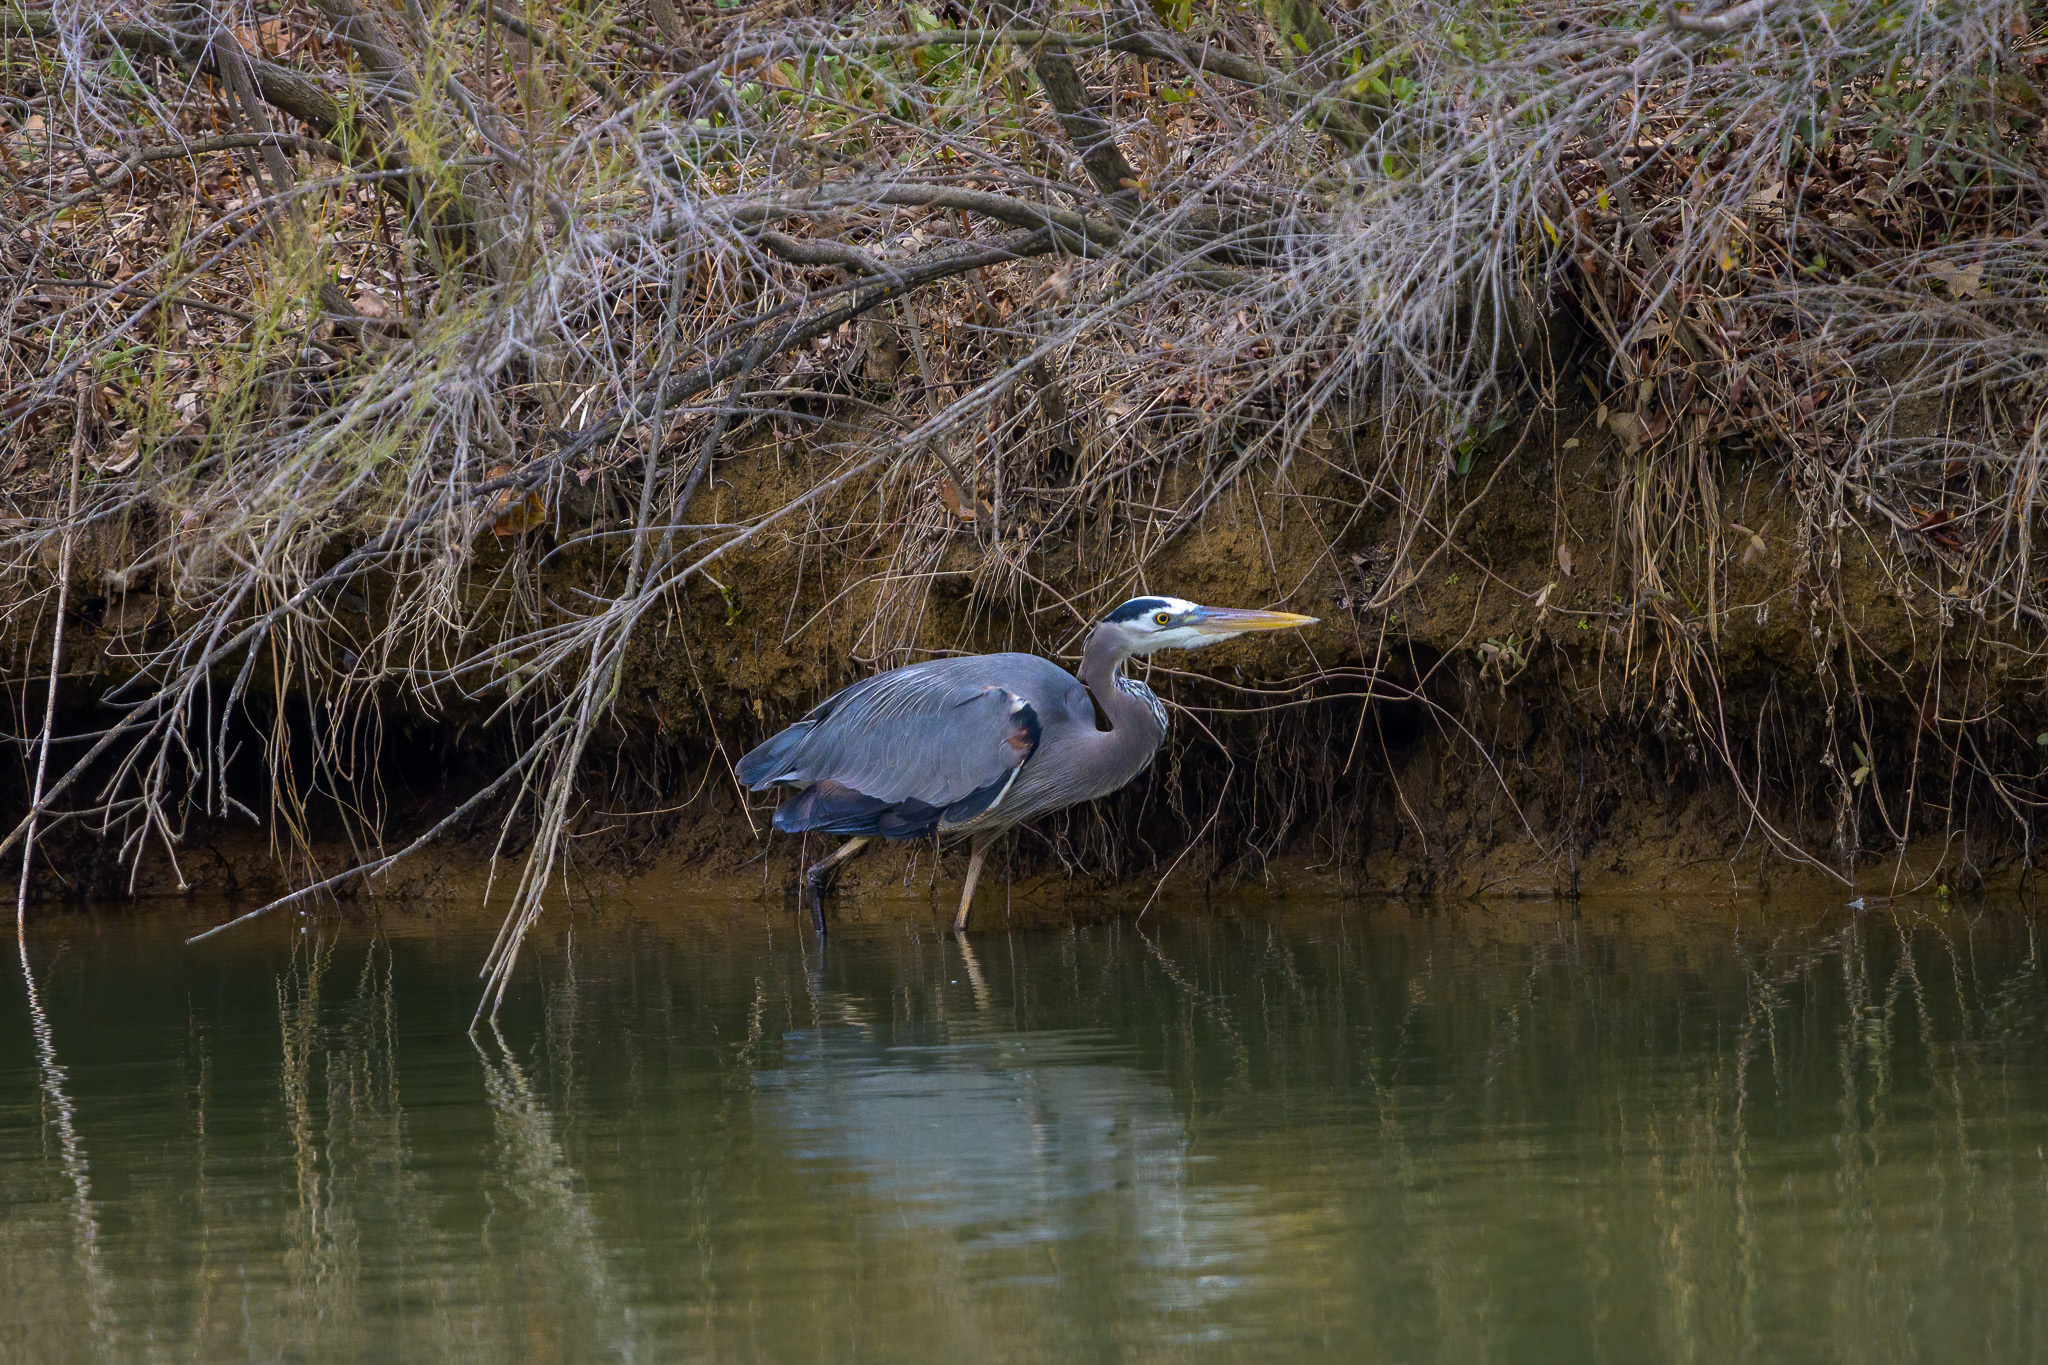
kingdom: Animalia
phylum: Chordata
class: Aves
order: Pelecaniformes
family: Ardeidae
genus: Ardea
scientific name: Ardea herodias
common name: Great blue heron
